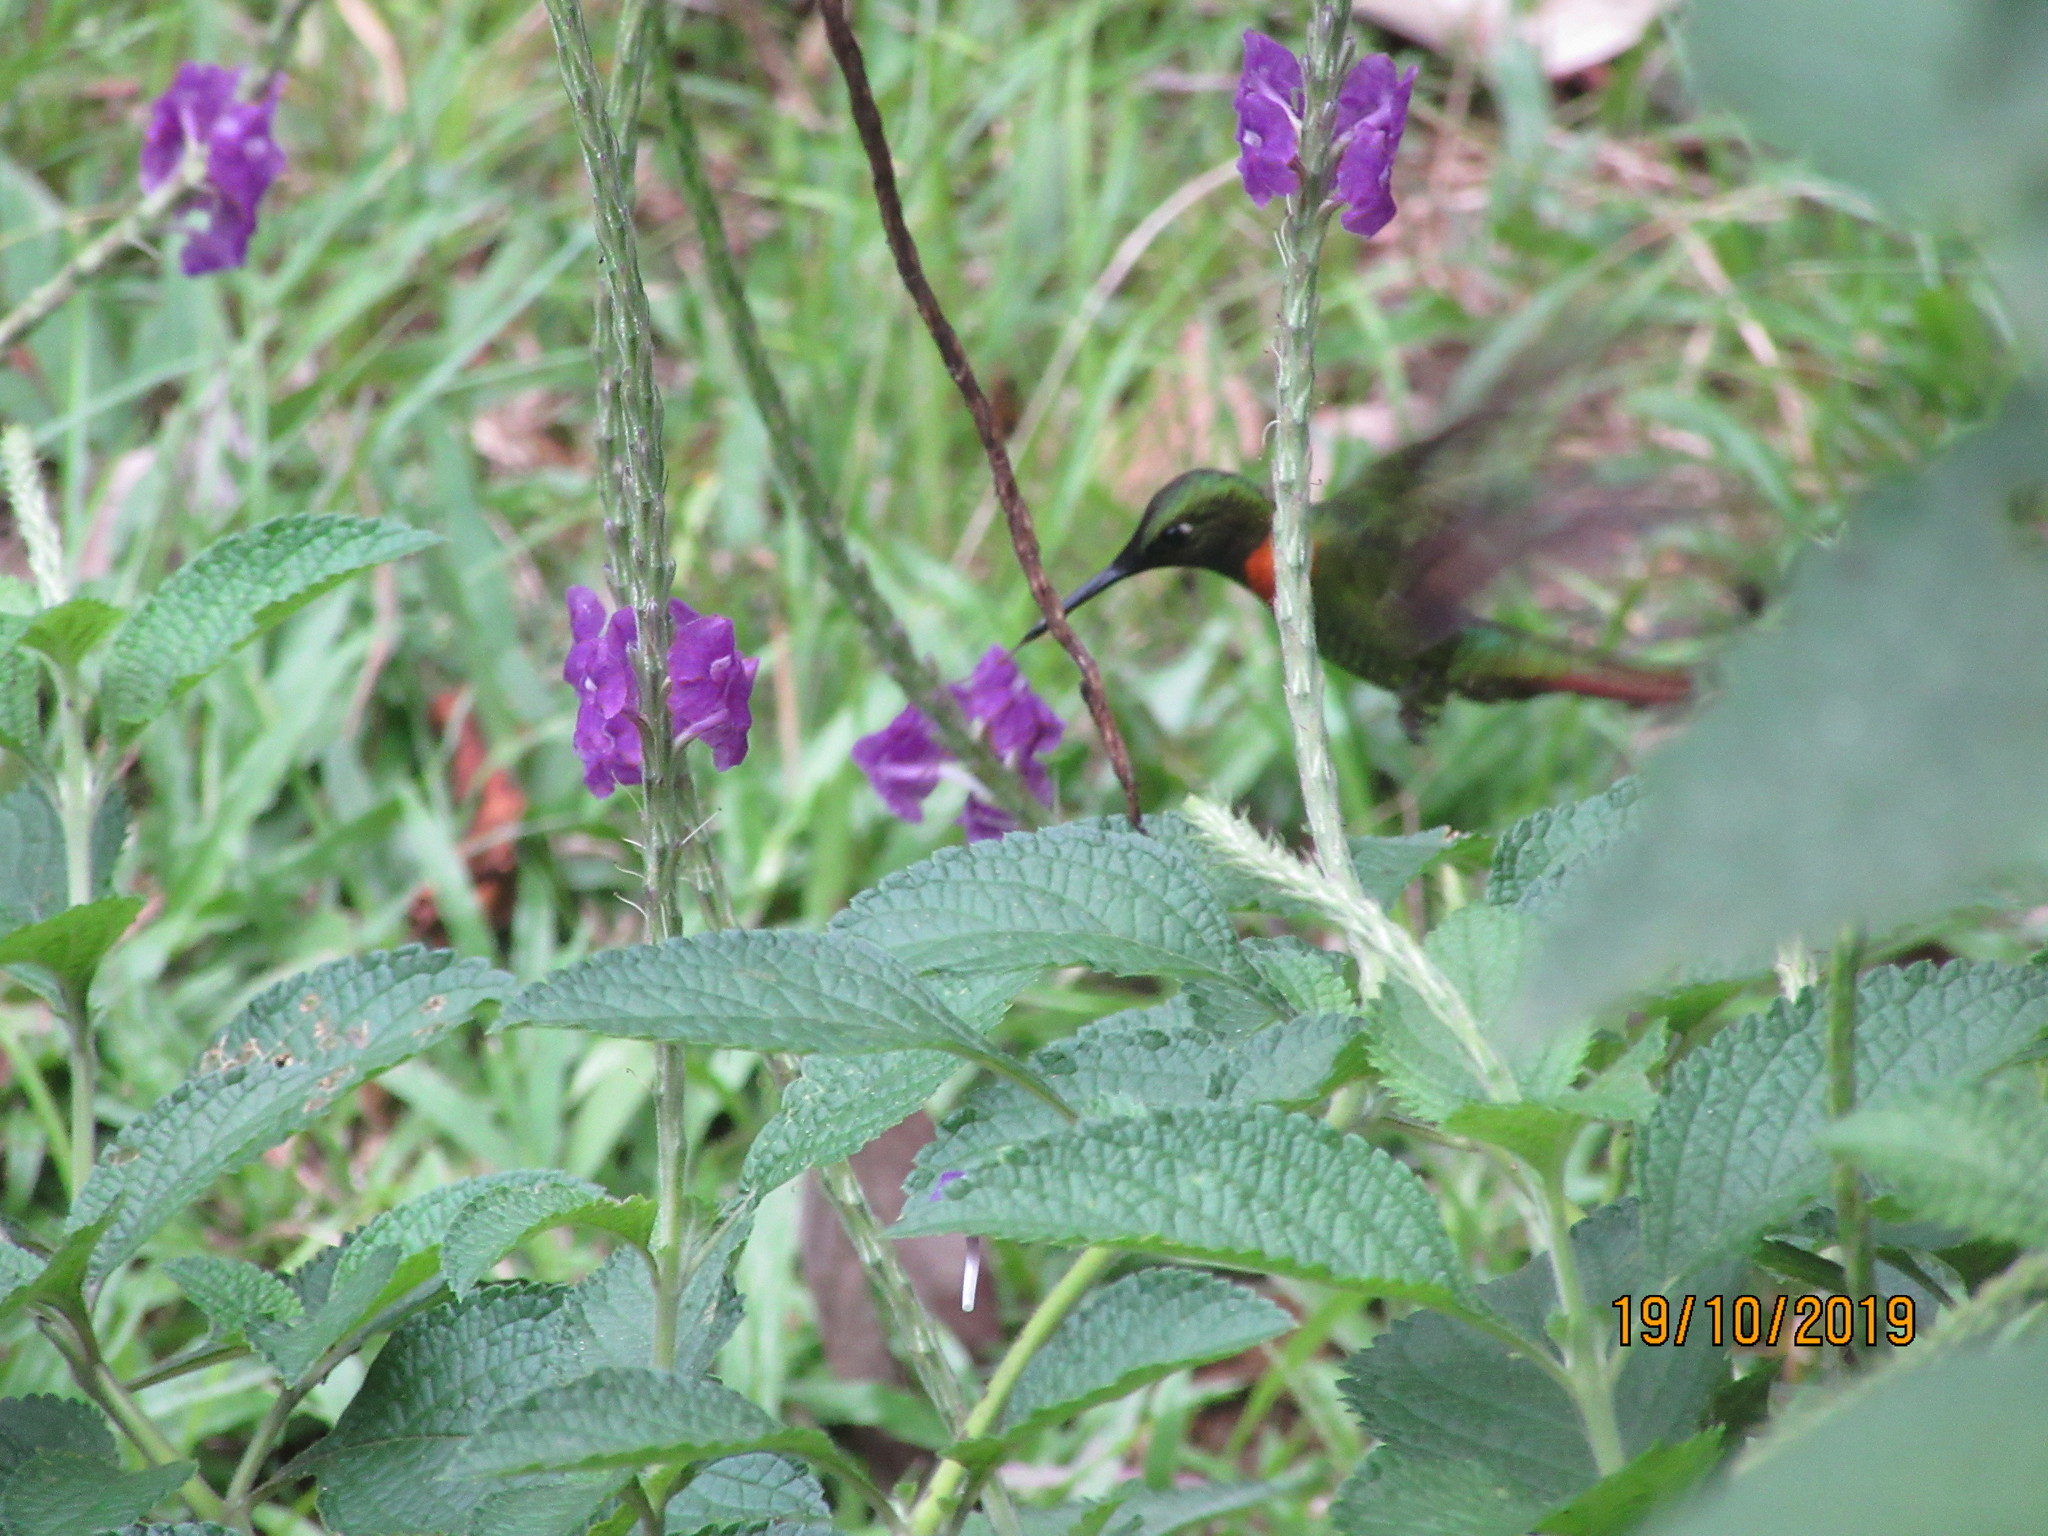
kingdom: Animalia
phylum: Chordata
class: Aves
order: Apodiformes
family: Trochilidae
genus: Heliodoxa
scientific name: Heliodoxa aurescens
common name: Gould's jewelfront
